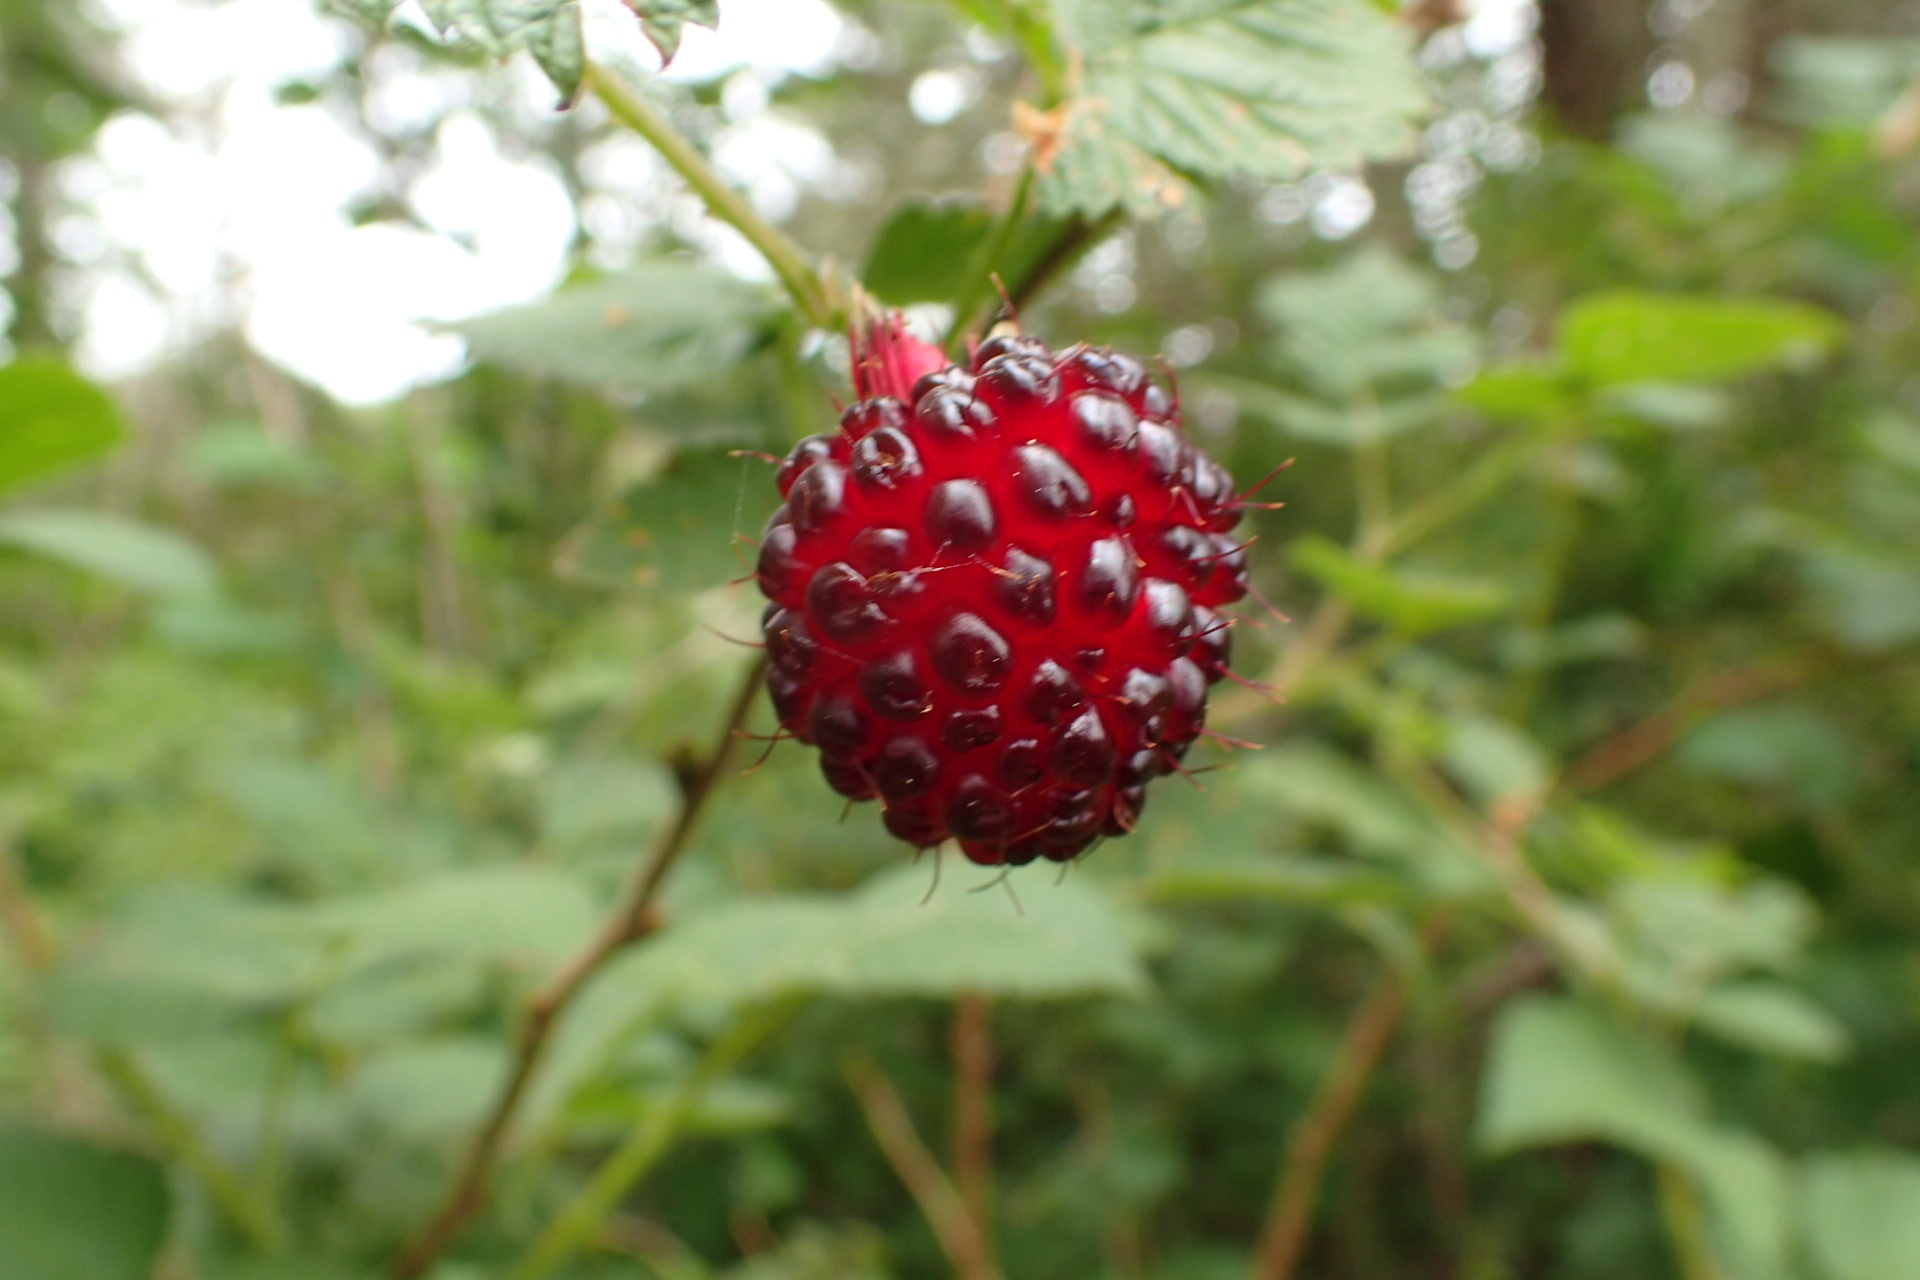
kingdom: Plantae
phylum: Tracheophyta
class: Magnoliopsida
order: Rosales
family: Rosaceae
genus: Rubus
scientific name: Rubus spectabilis
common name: Salmonberry
